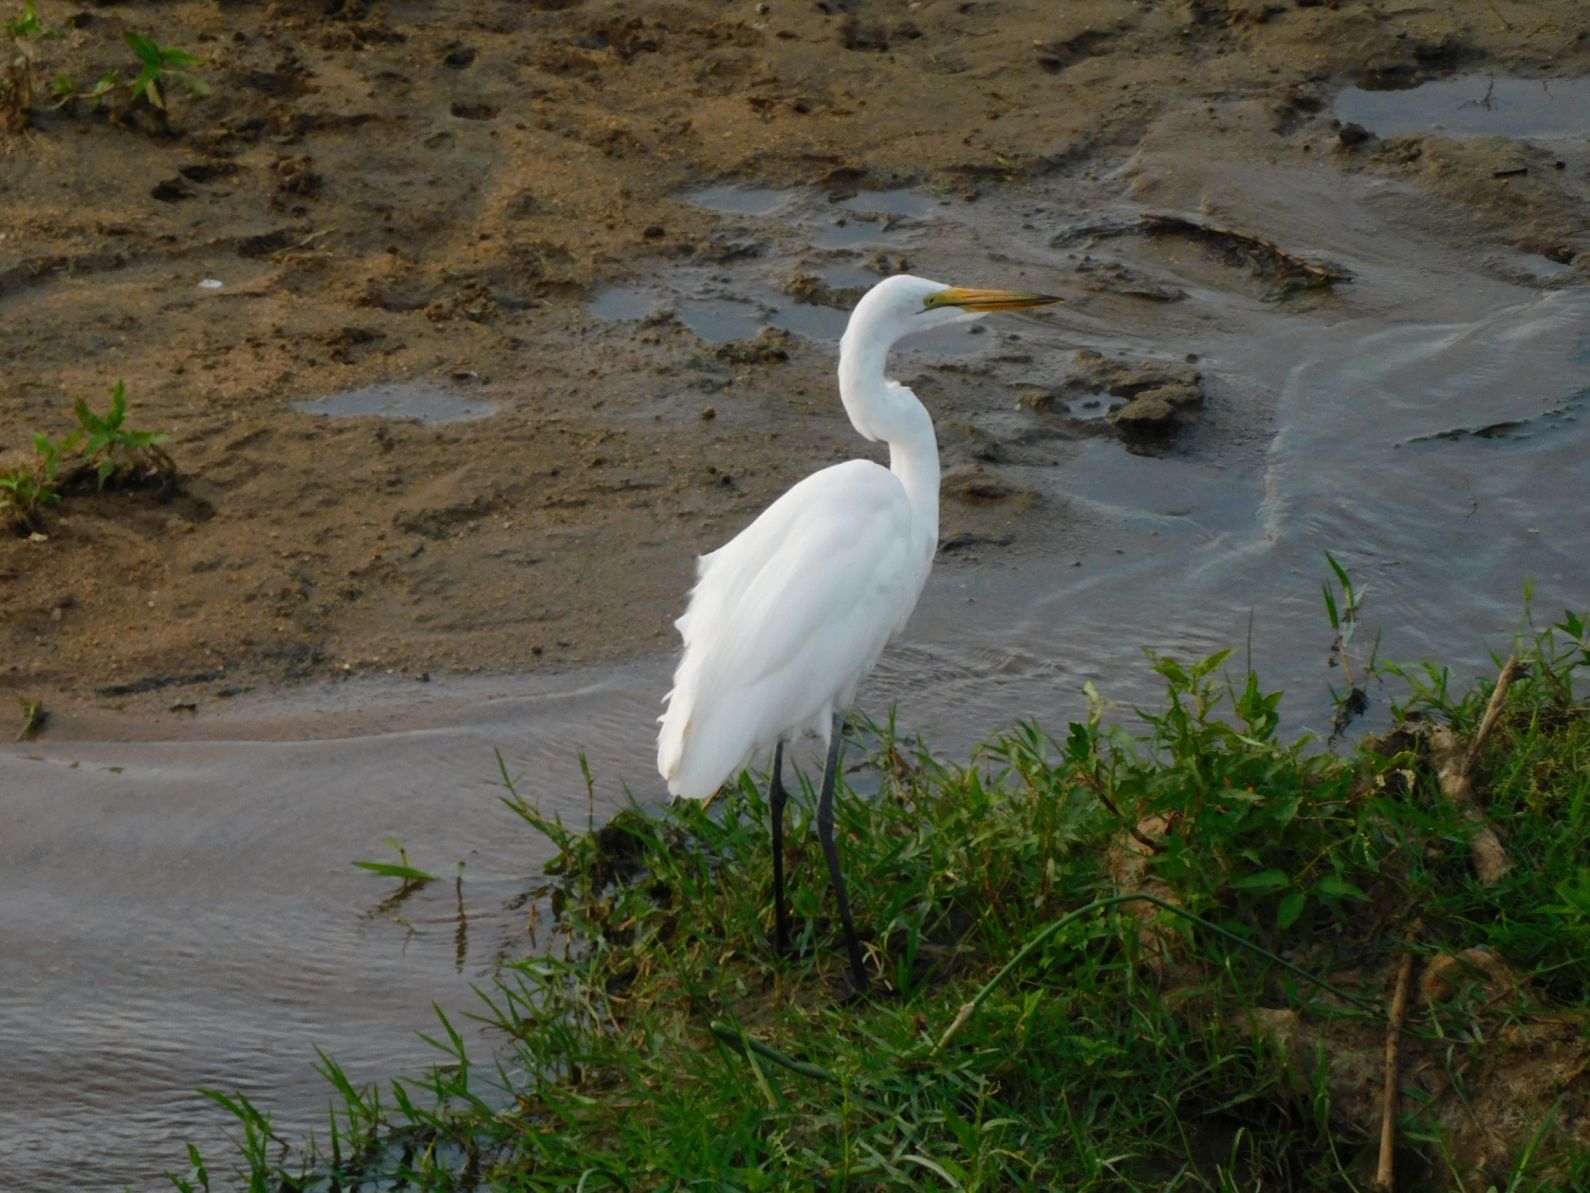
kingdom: Animalia
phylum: Chordata
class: Aves
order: Pelecaniformes
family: Ardeidae
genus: Ardea
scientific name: Ardea alba
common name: Great egret
